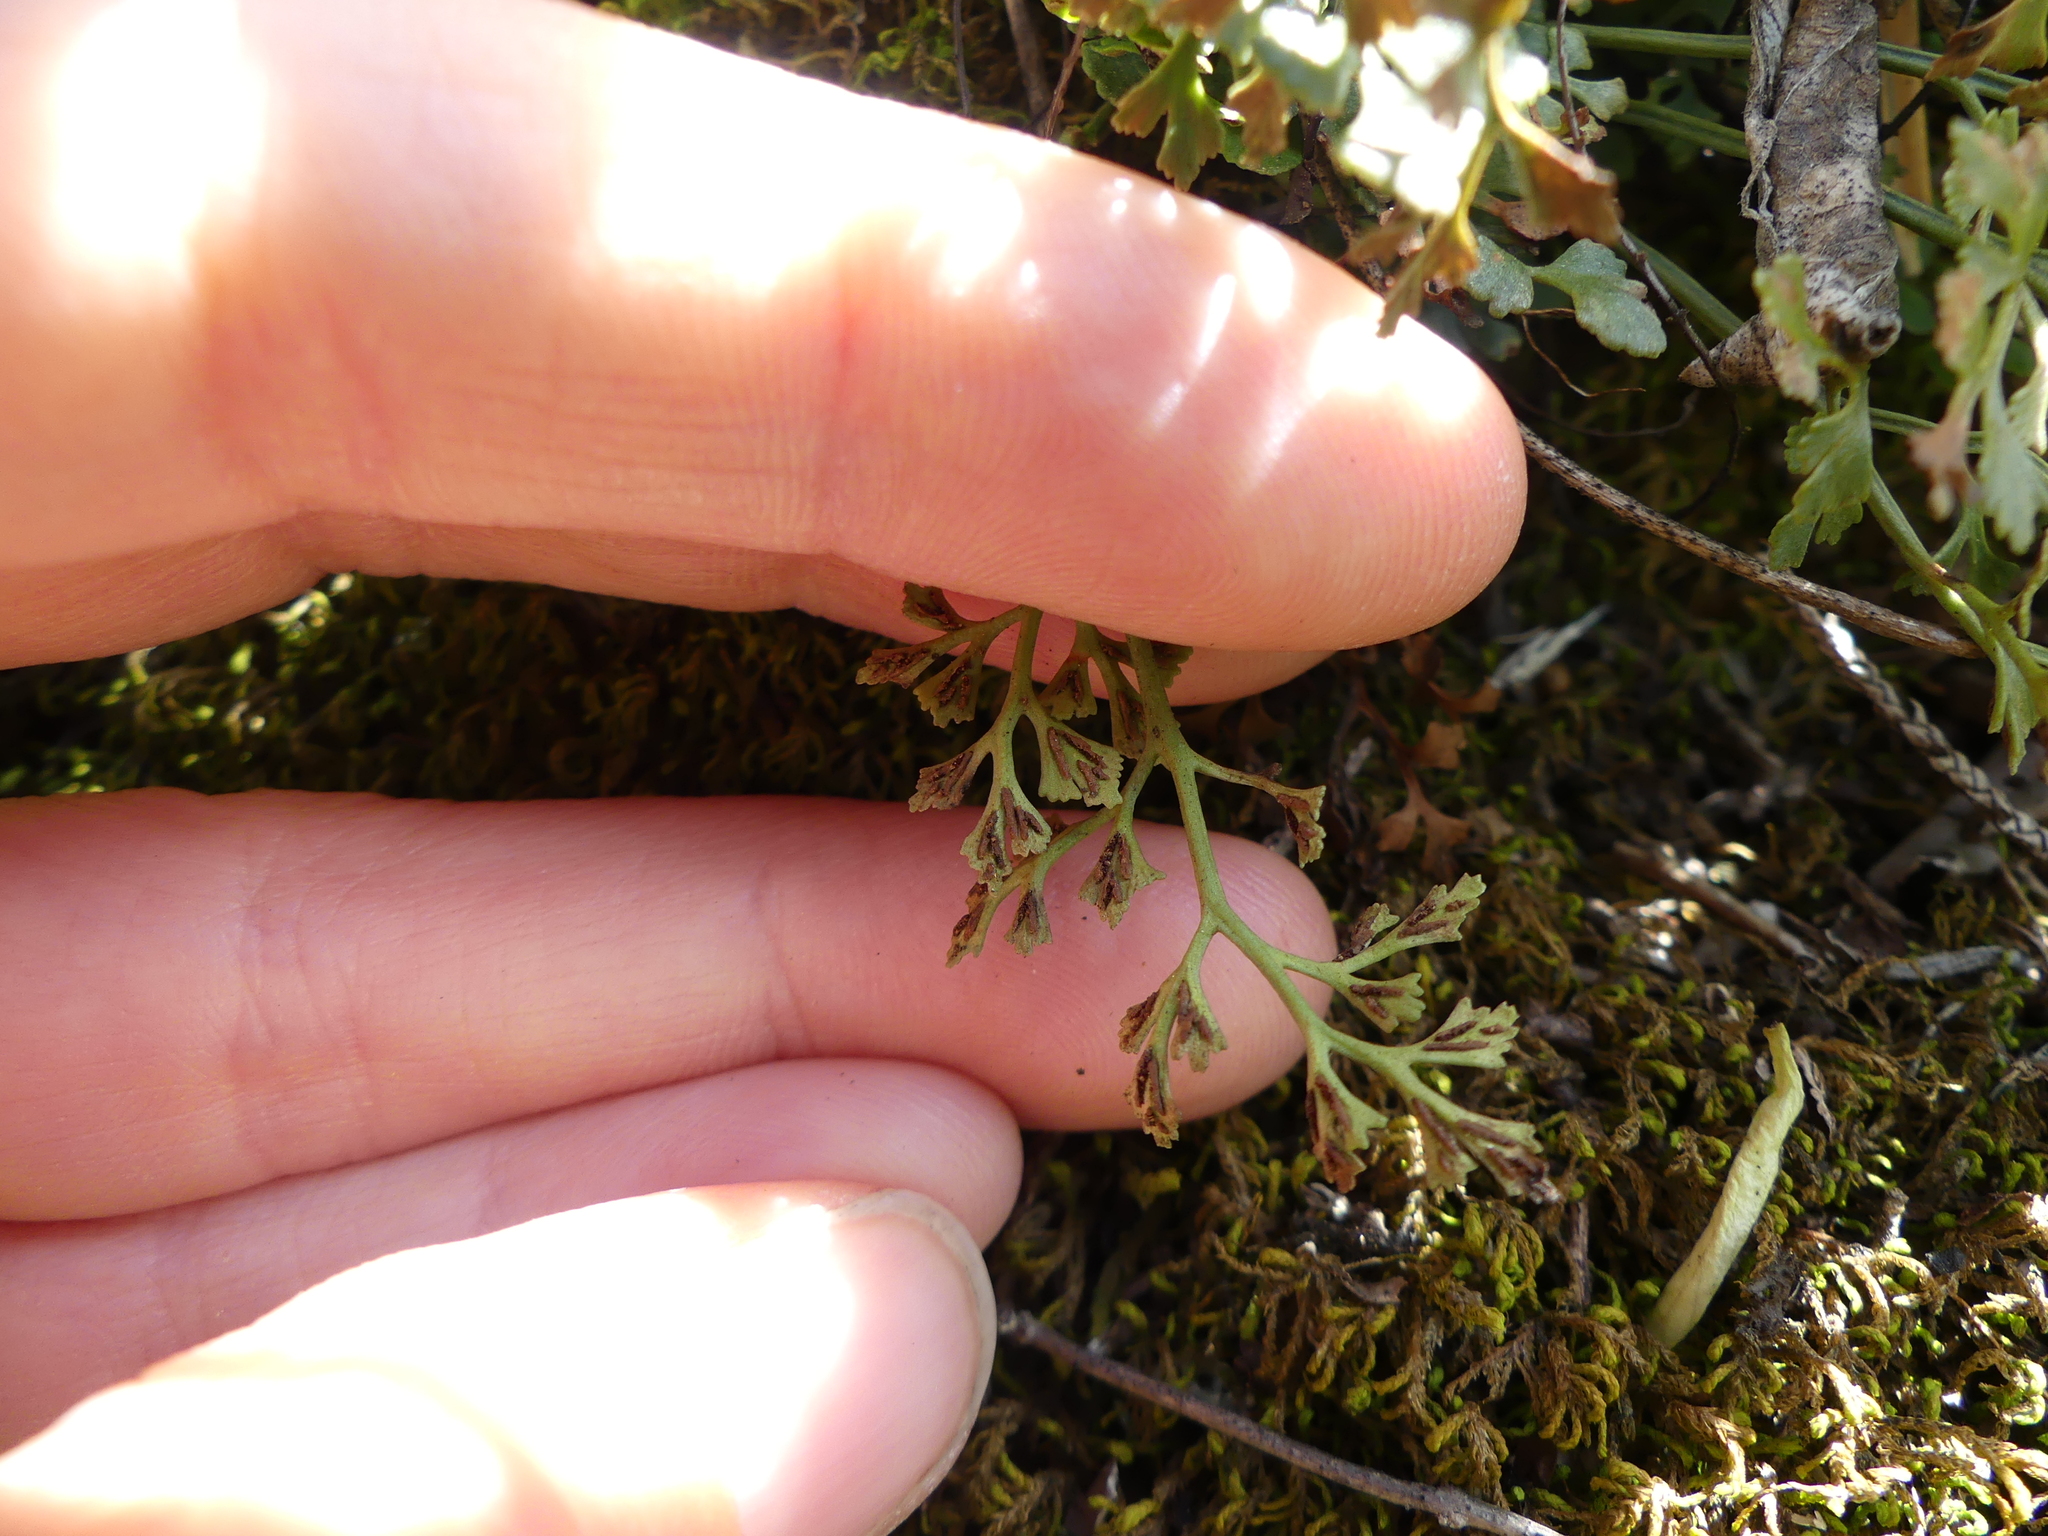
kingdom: Plantae
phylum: Tracheophyta
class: Polypodiopsida
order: Polypodiales
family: Aspleniaceae
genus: Asplenium
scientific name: Asplenium ruta-muraria
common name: Wall-rue
